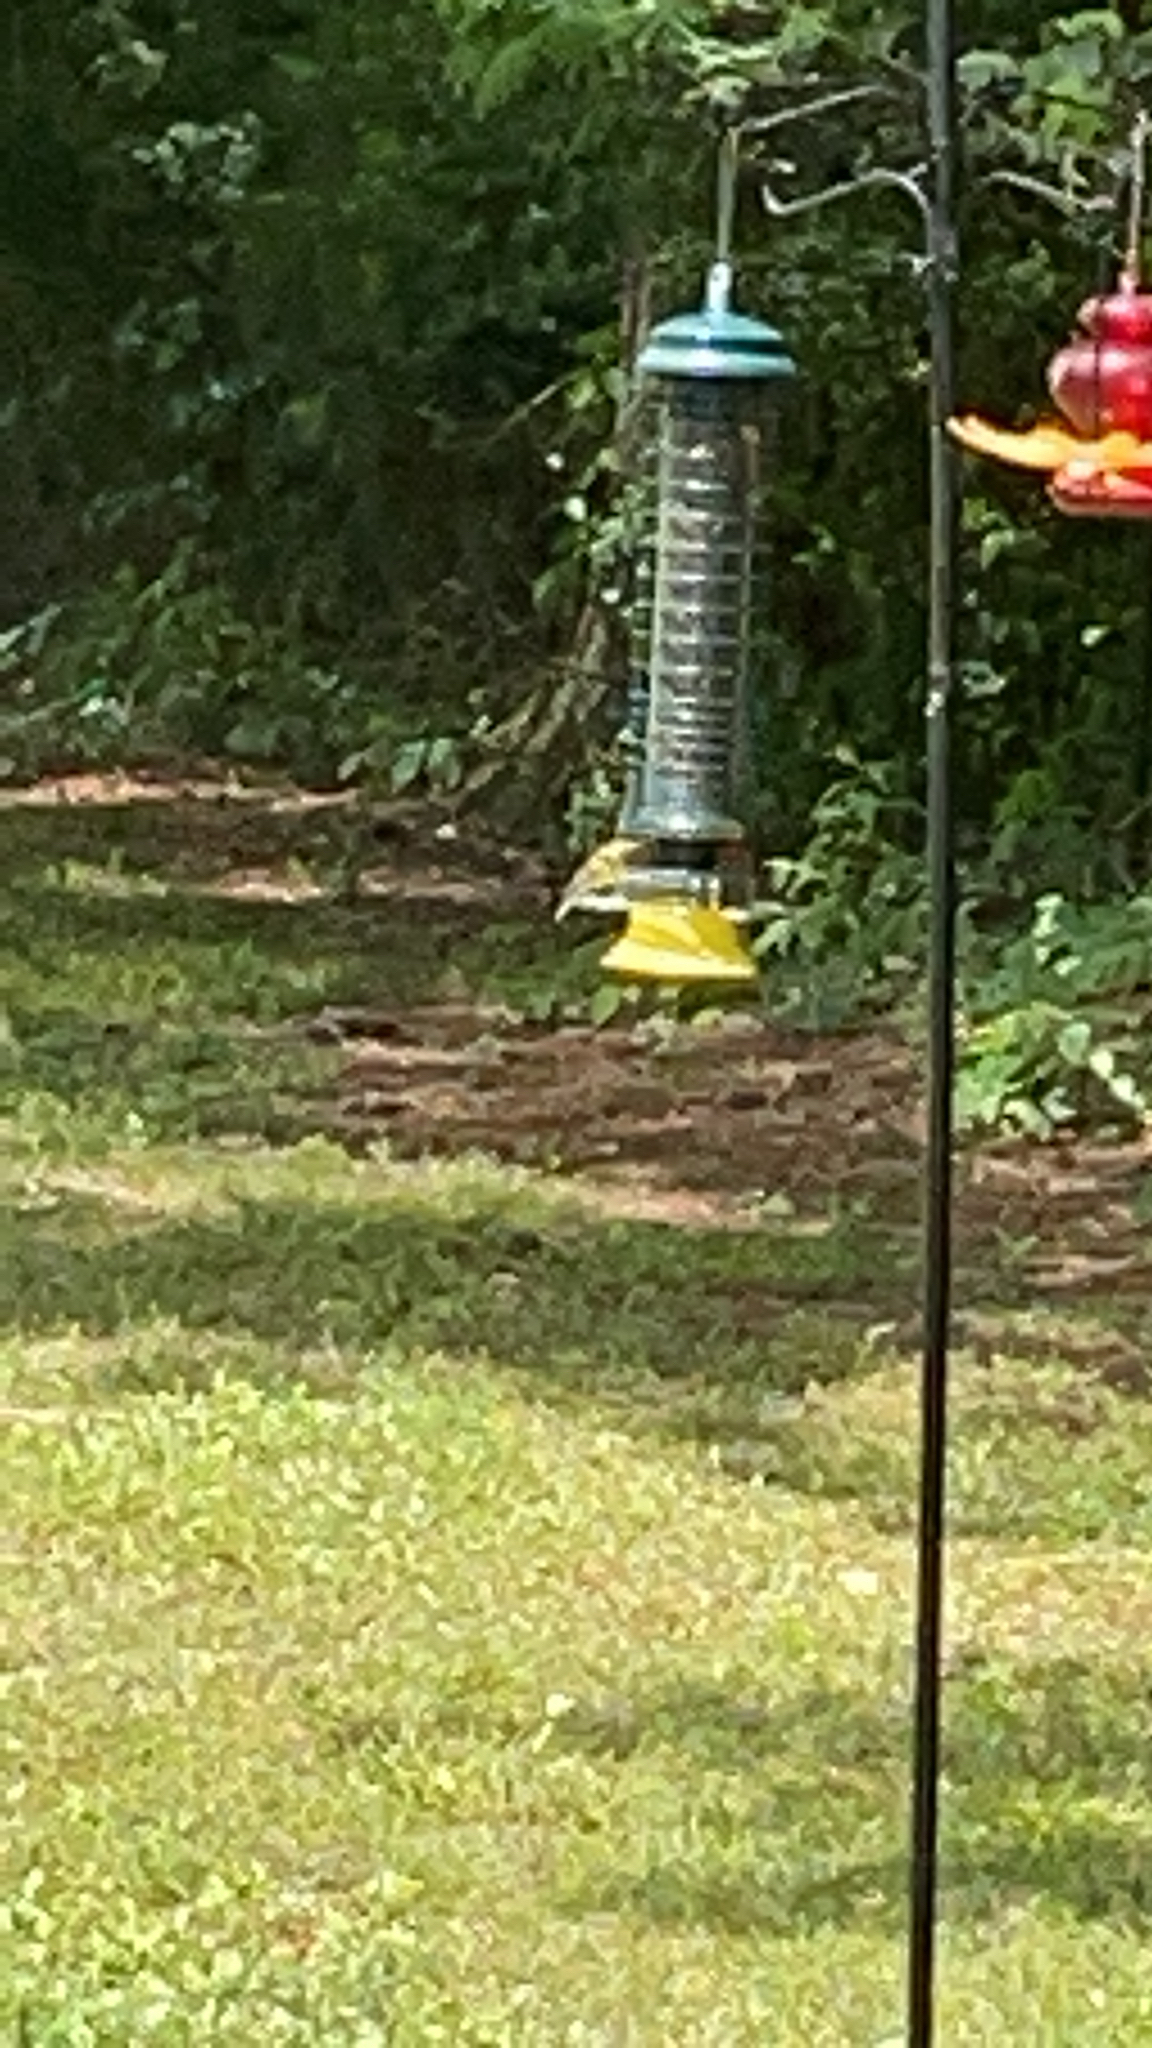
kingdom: Animalia
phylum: Chordata
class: Aves
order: Passeriformes
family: Fringillidae
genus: Spinus
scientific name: Spinus tristis
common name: American goldfinch
